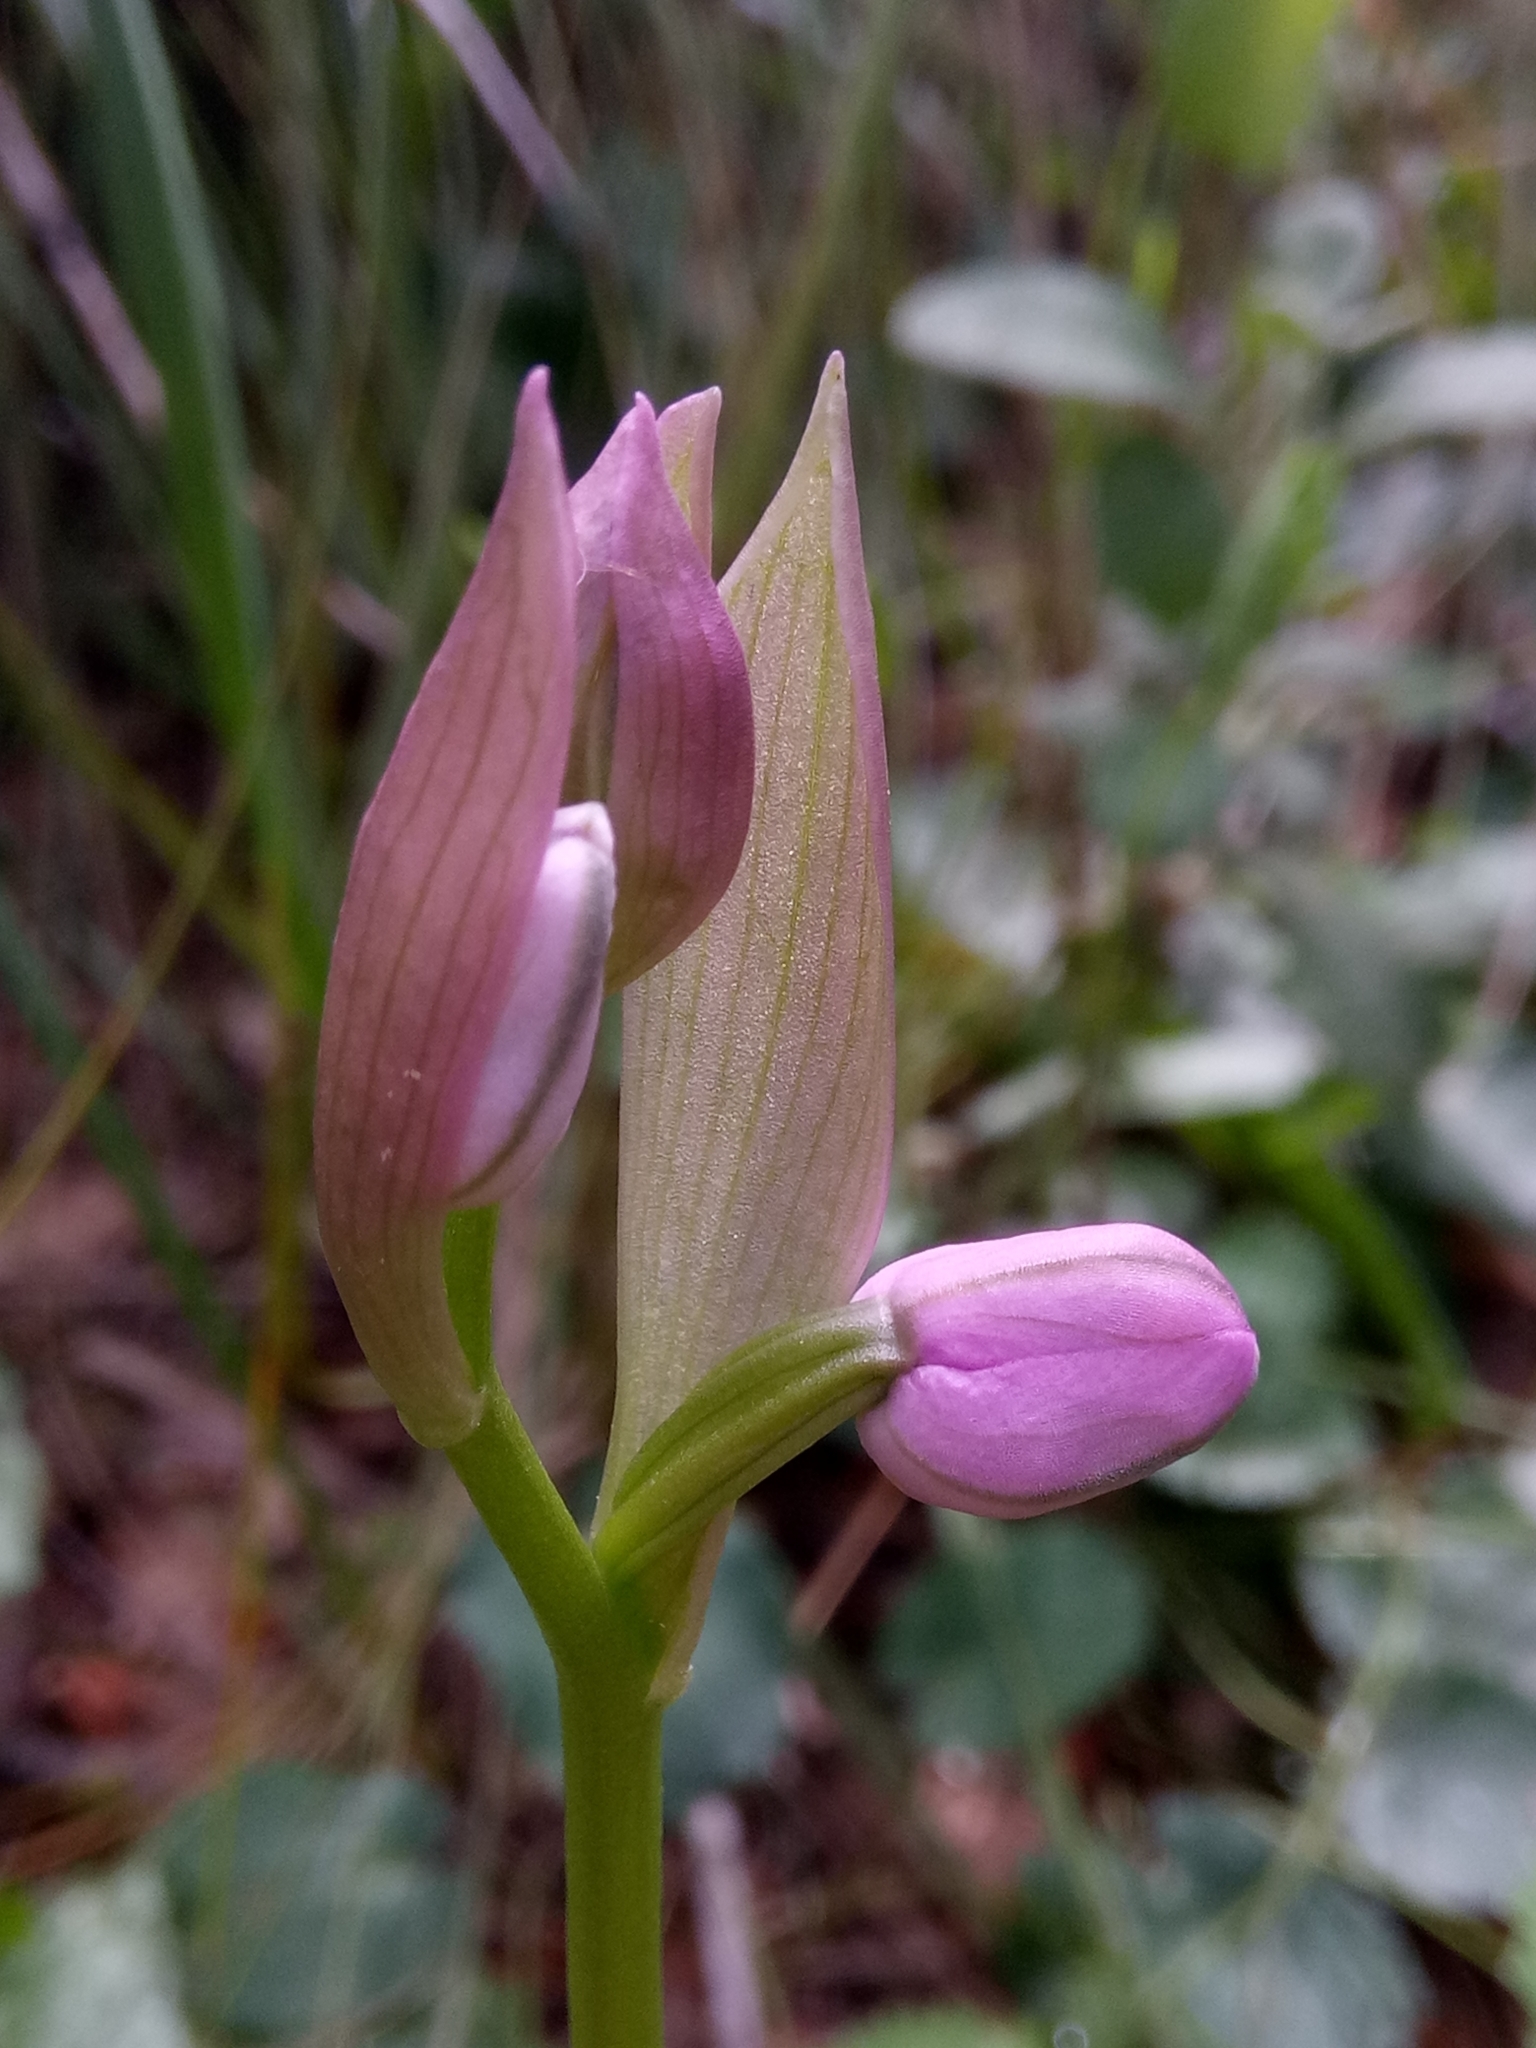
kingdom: Plantae
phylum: Tracheophyta
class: Liliopsida
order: Asparagales
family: Orchidaceae
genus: Ophrys
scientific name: Ophrys tenthredinifera
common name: Sawfly orchid
